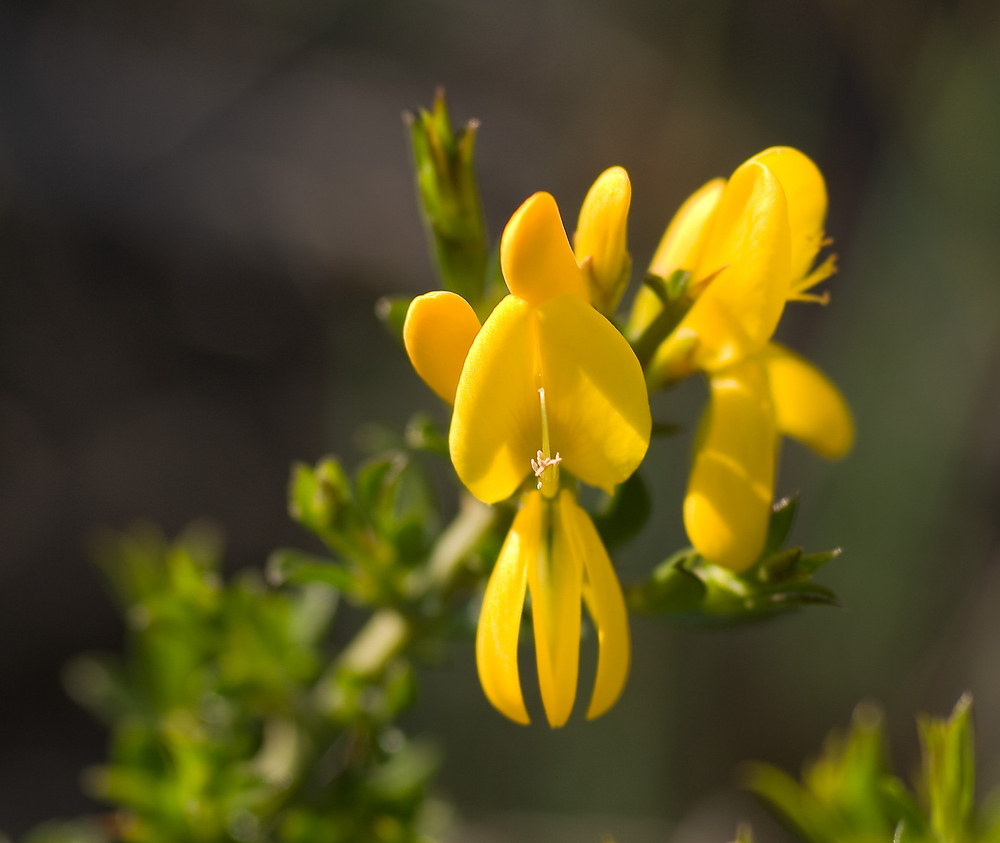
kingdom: Plantae
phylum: Tracheophyta
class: Magnoliopsida
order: Fabales
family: Fabaceae
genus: Genista
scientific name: Genista scorpius
